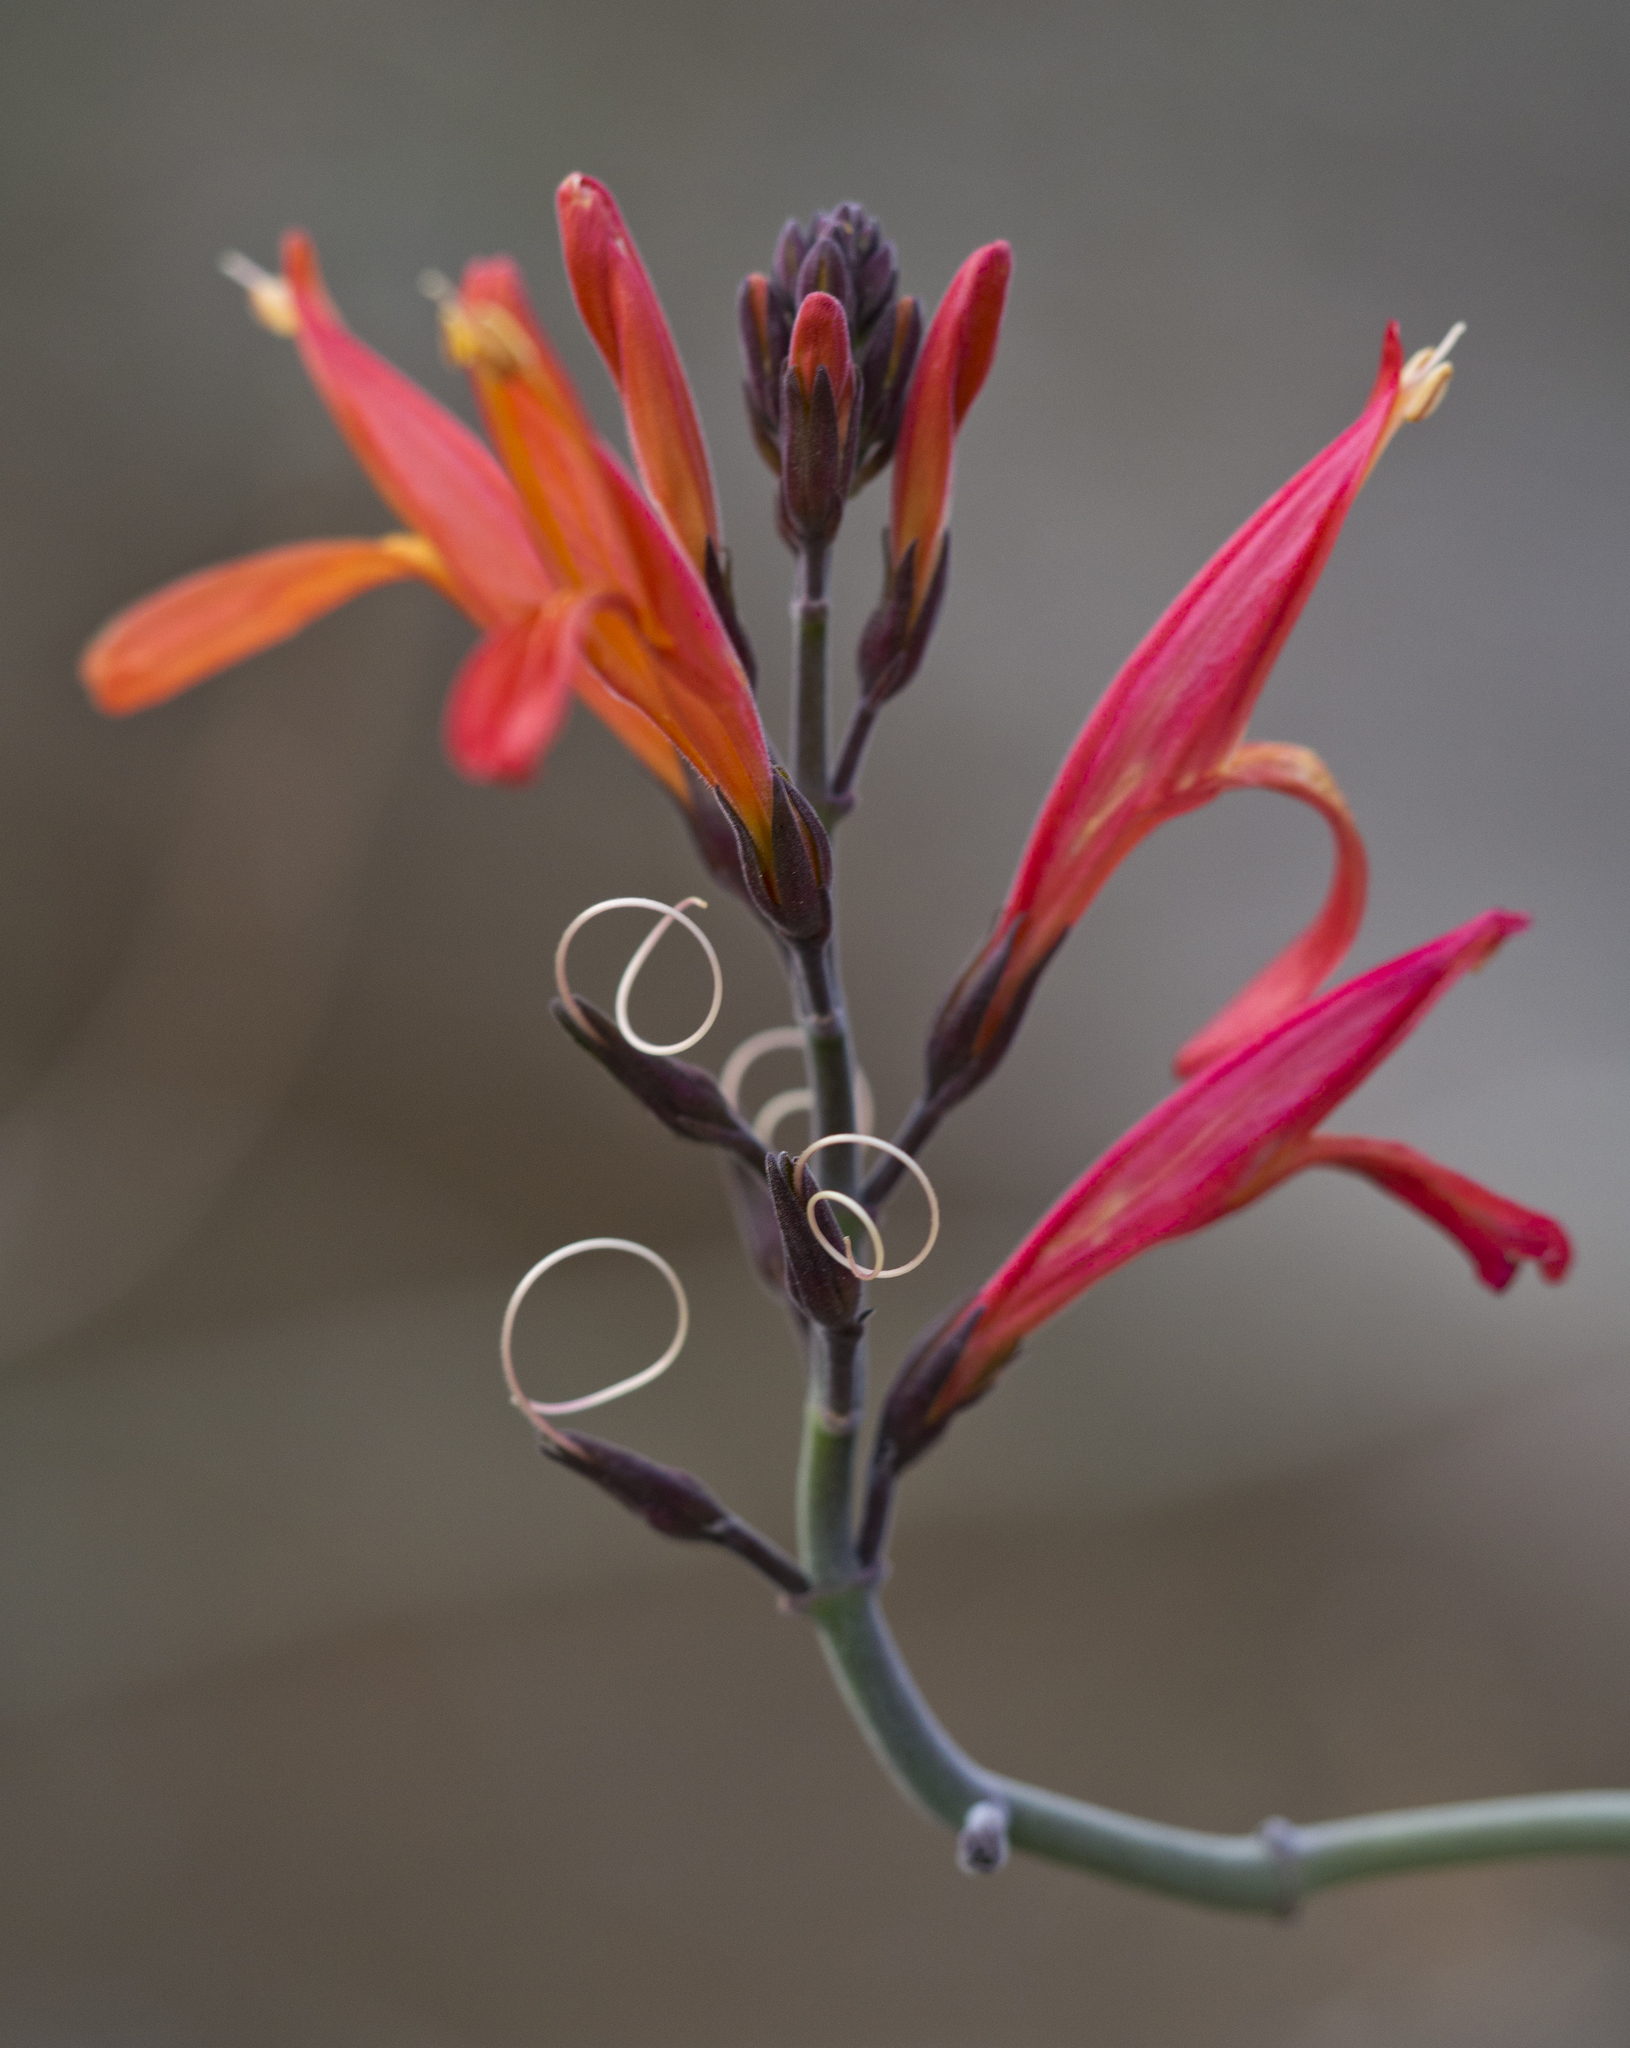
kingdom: Plantae
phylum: Tracheophyta
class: Magnoliopsida
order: Lamiales
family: Acanthaceae
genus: Justicia
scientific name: Justicia californica
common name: Chuparosa-honeysuckle
